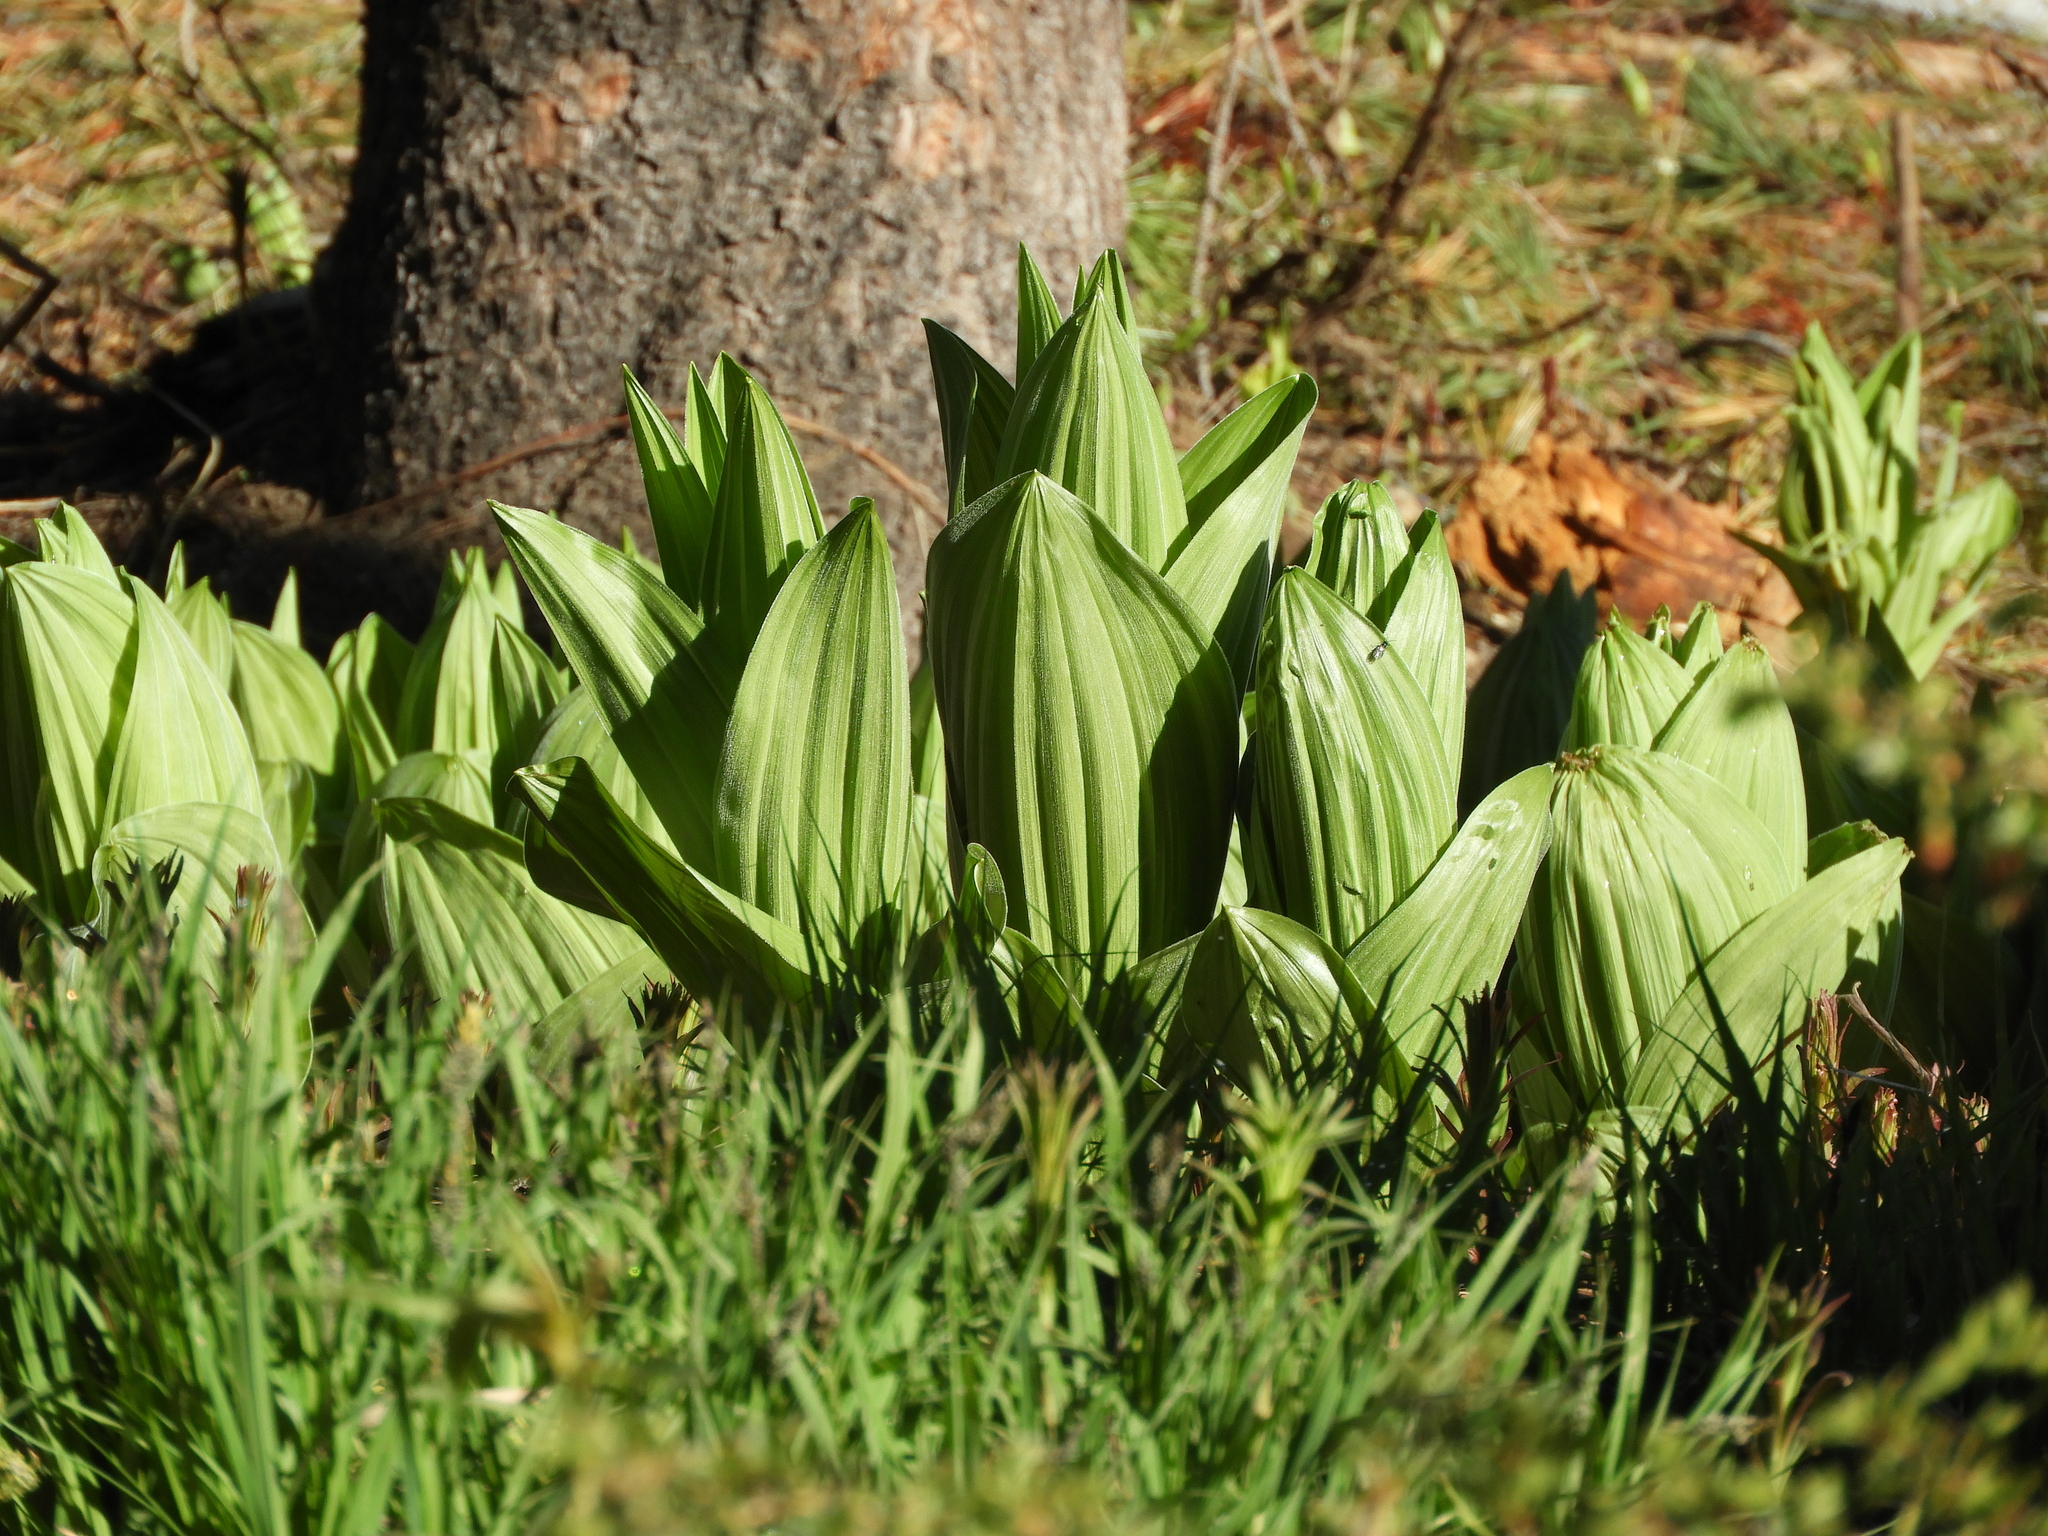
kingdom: Plantae
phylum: Tracheophyta
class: Liliopsida
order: Liliales
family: Melanthiaceae
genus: Veratrum
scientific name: Veratrum californicum
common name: California veratrum
